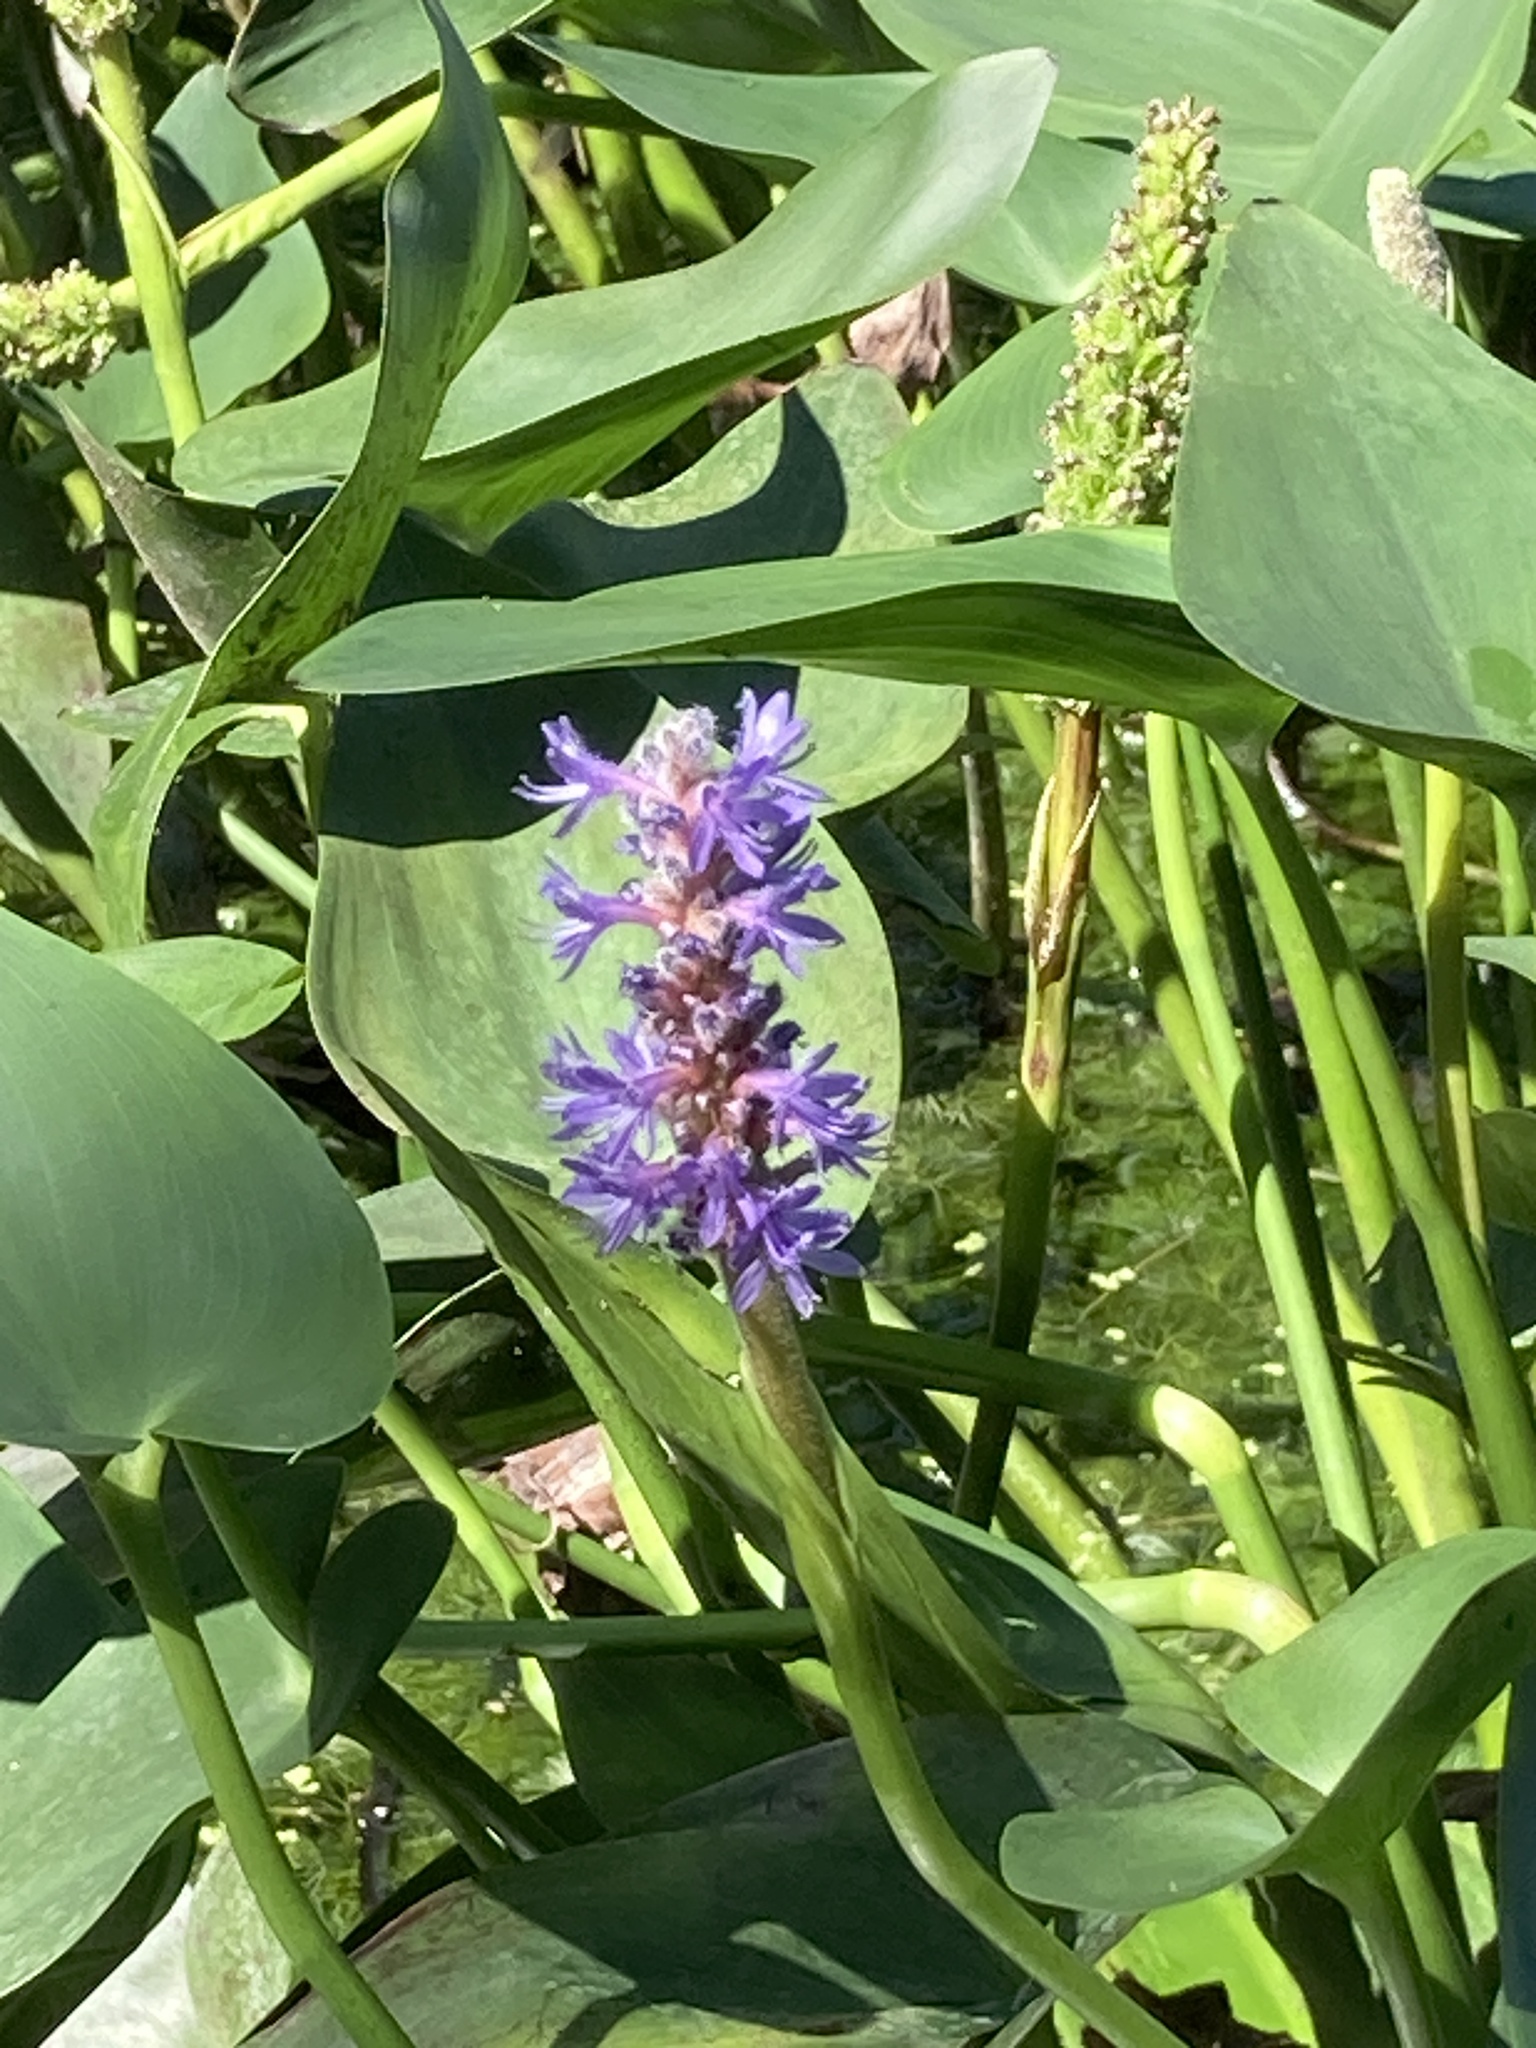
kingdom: Plantae
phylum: Tracheophyta
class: Liliopsida
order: Commelinales
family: Pontederiaceae
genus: Pontederia
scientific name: Pontederia cordata
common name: Pickerelweed
